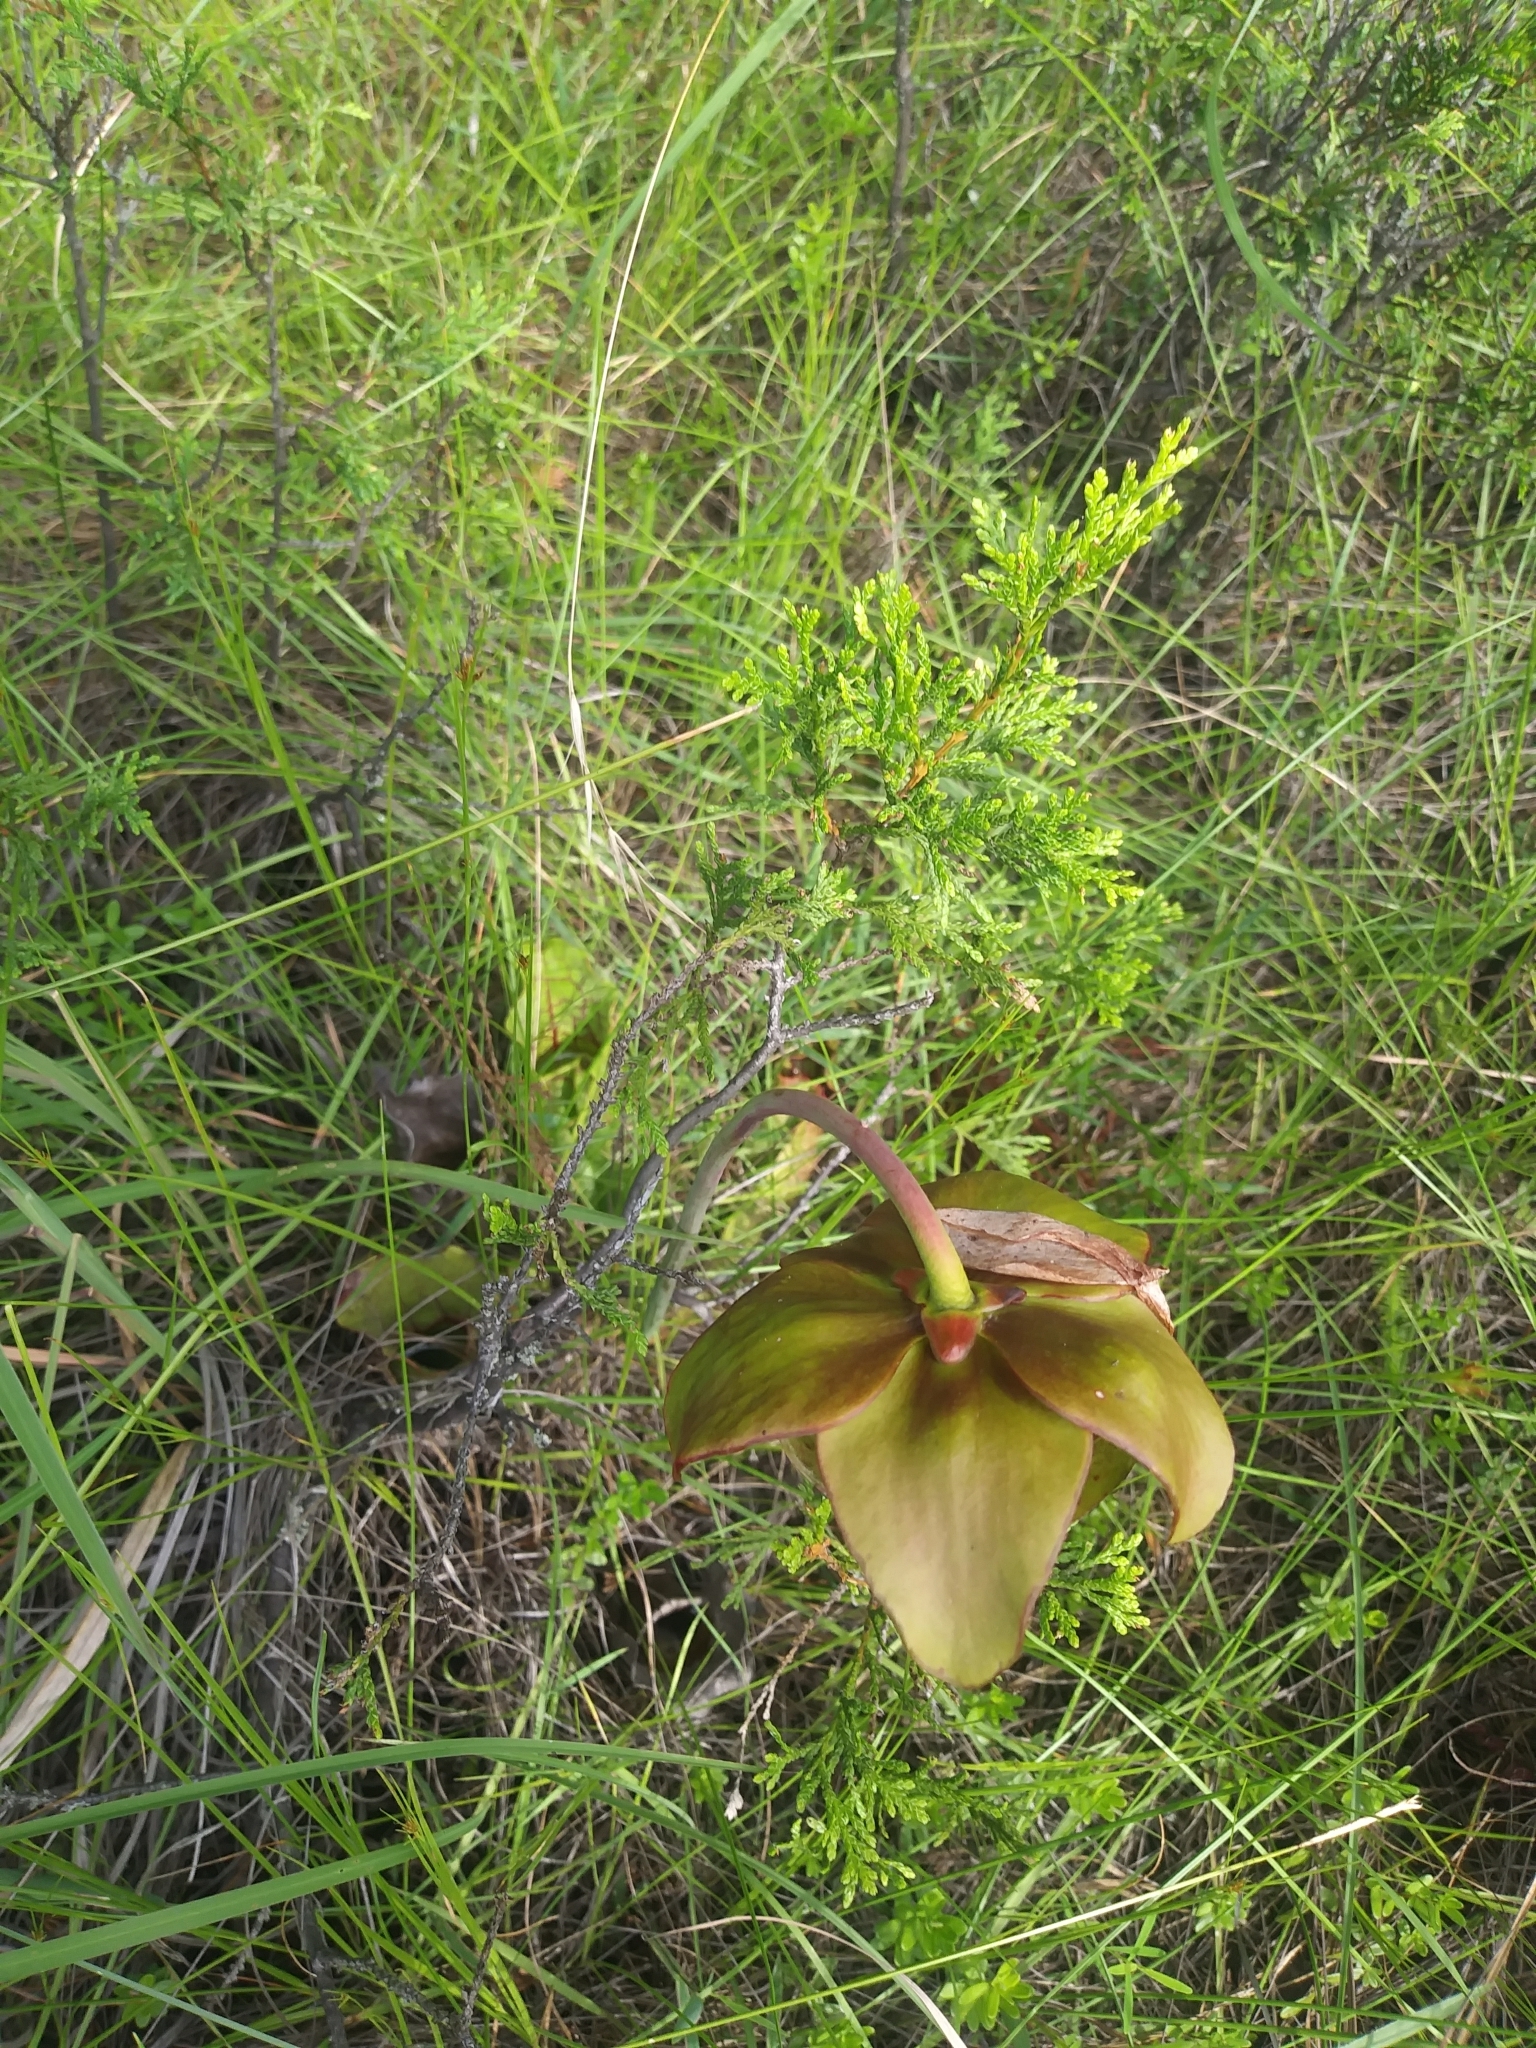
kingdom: Plantae
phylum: Tracheophyta
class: Magnoliopsida
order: Ericales
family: Sarraceniaceae
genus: Sarracenia
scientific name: Sarracenia purpurea
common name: Pitcherplant
